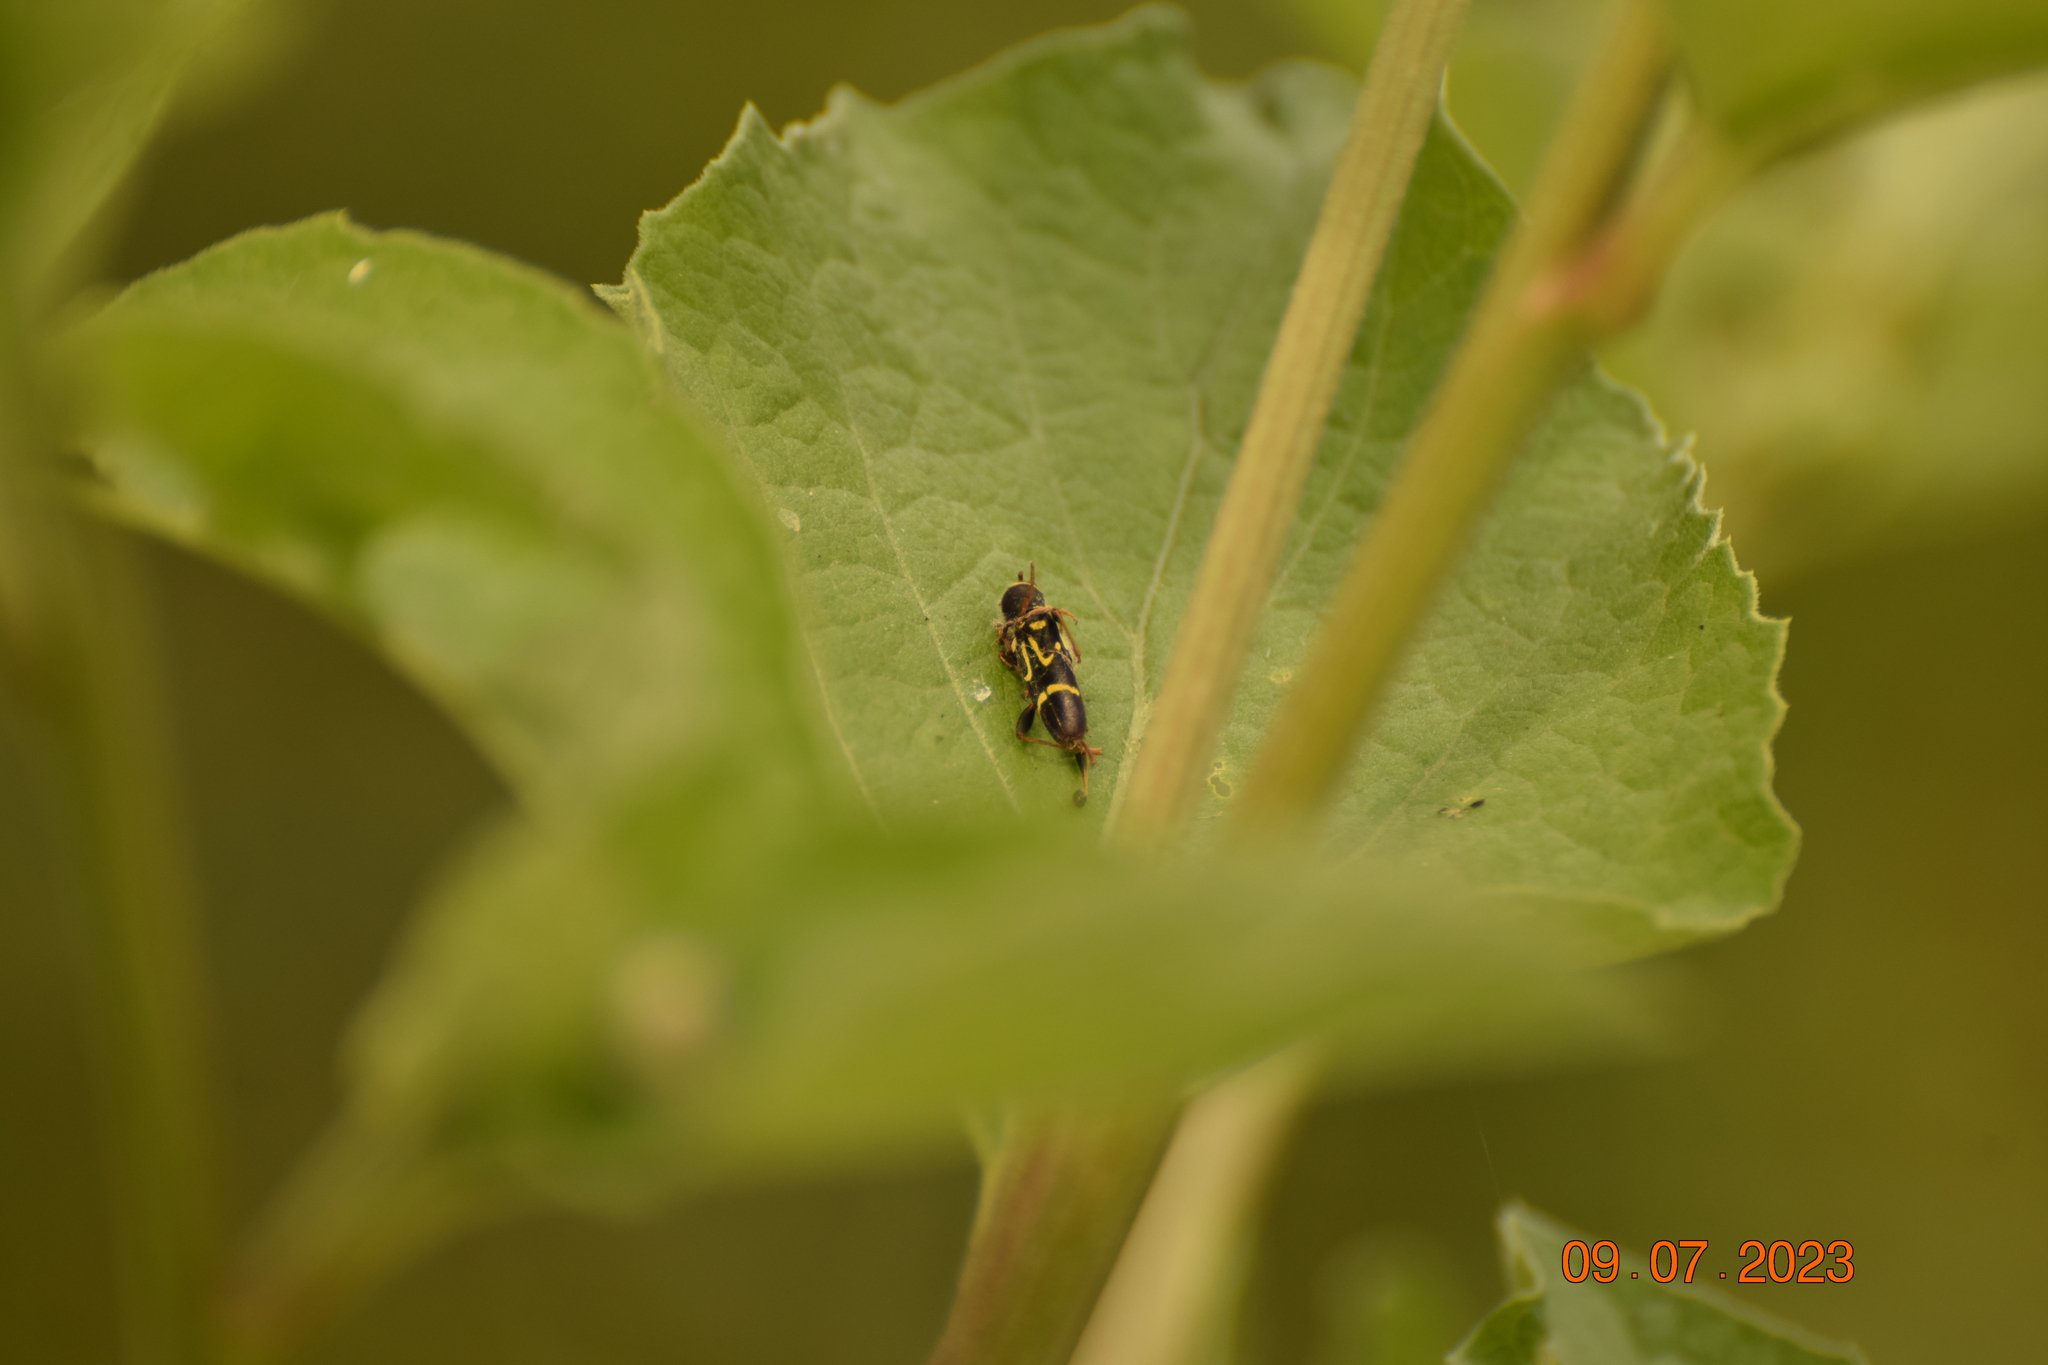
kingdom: Animalia
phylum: Arthropoda
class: Insecta
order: Coleoptera
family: Cerambycidae
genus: Clytus
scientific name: Clytus ruricola
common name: Round-necked longhorn beetle
